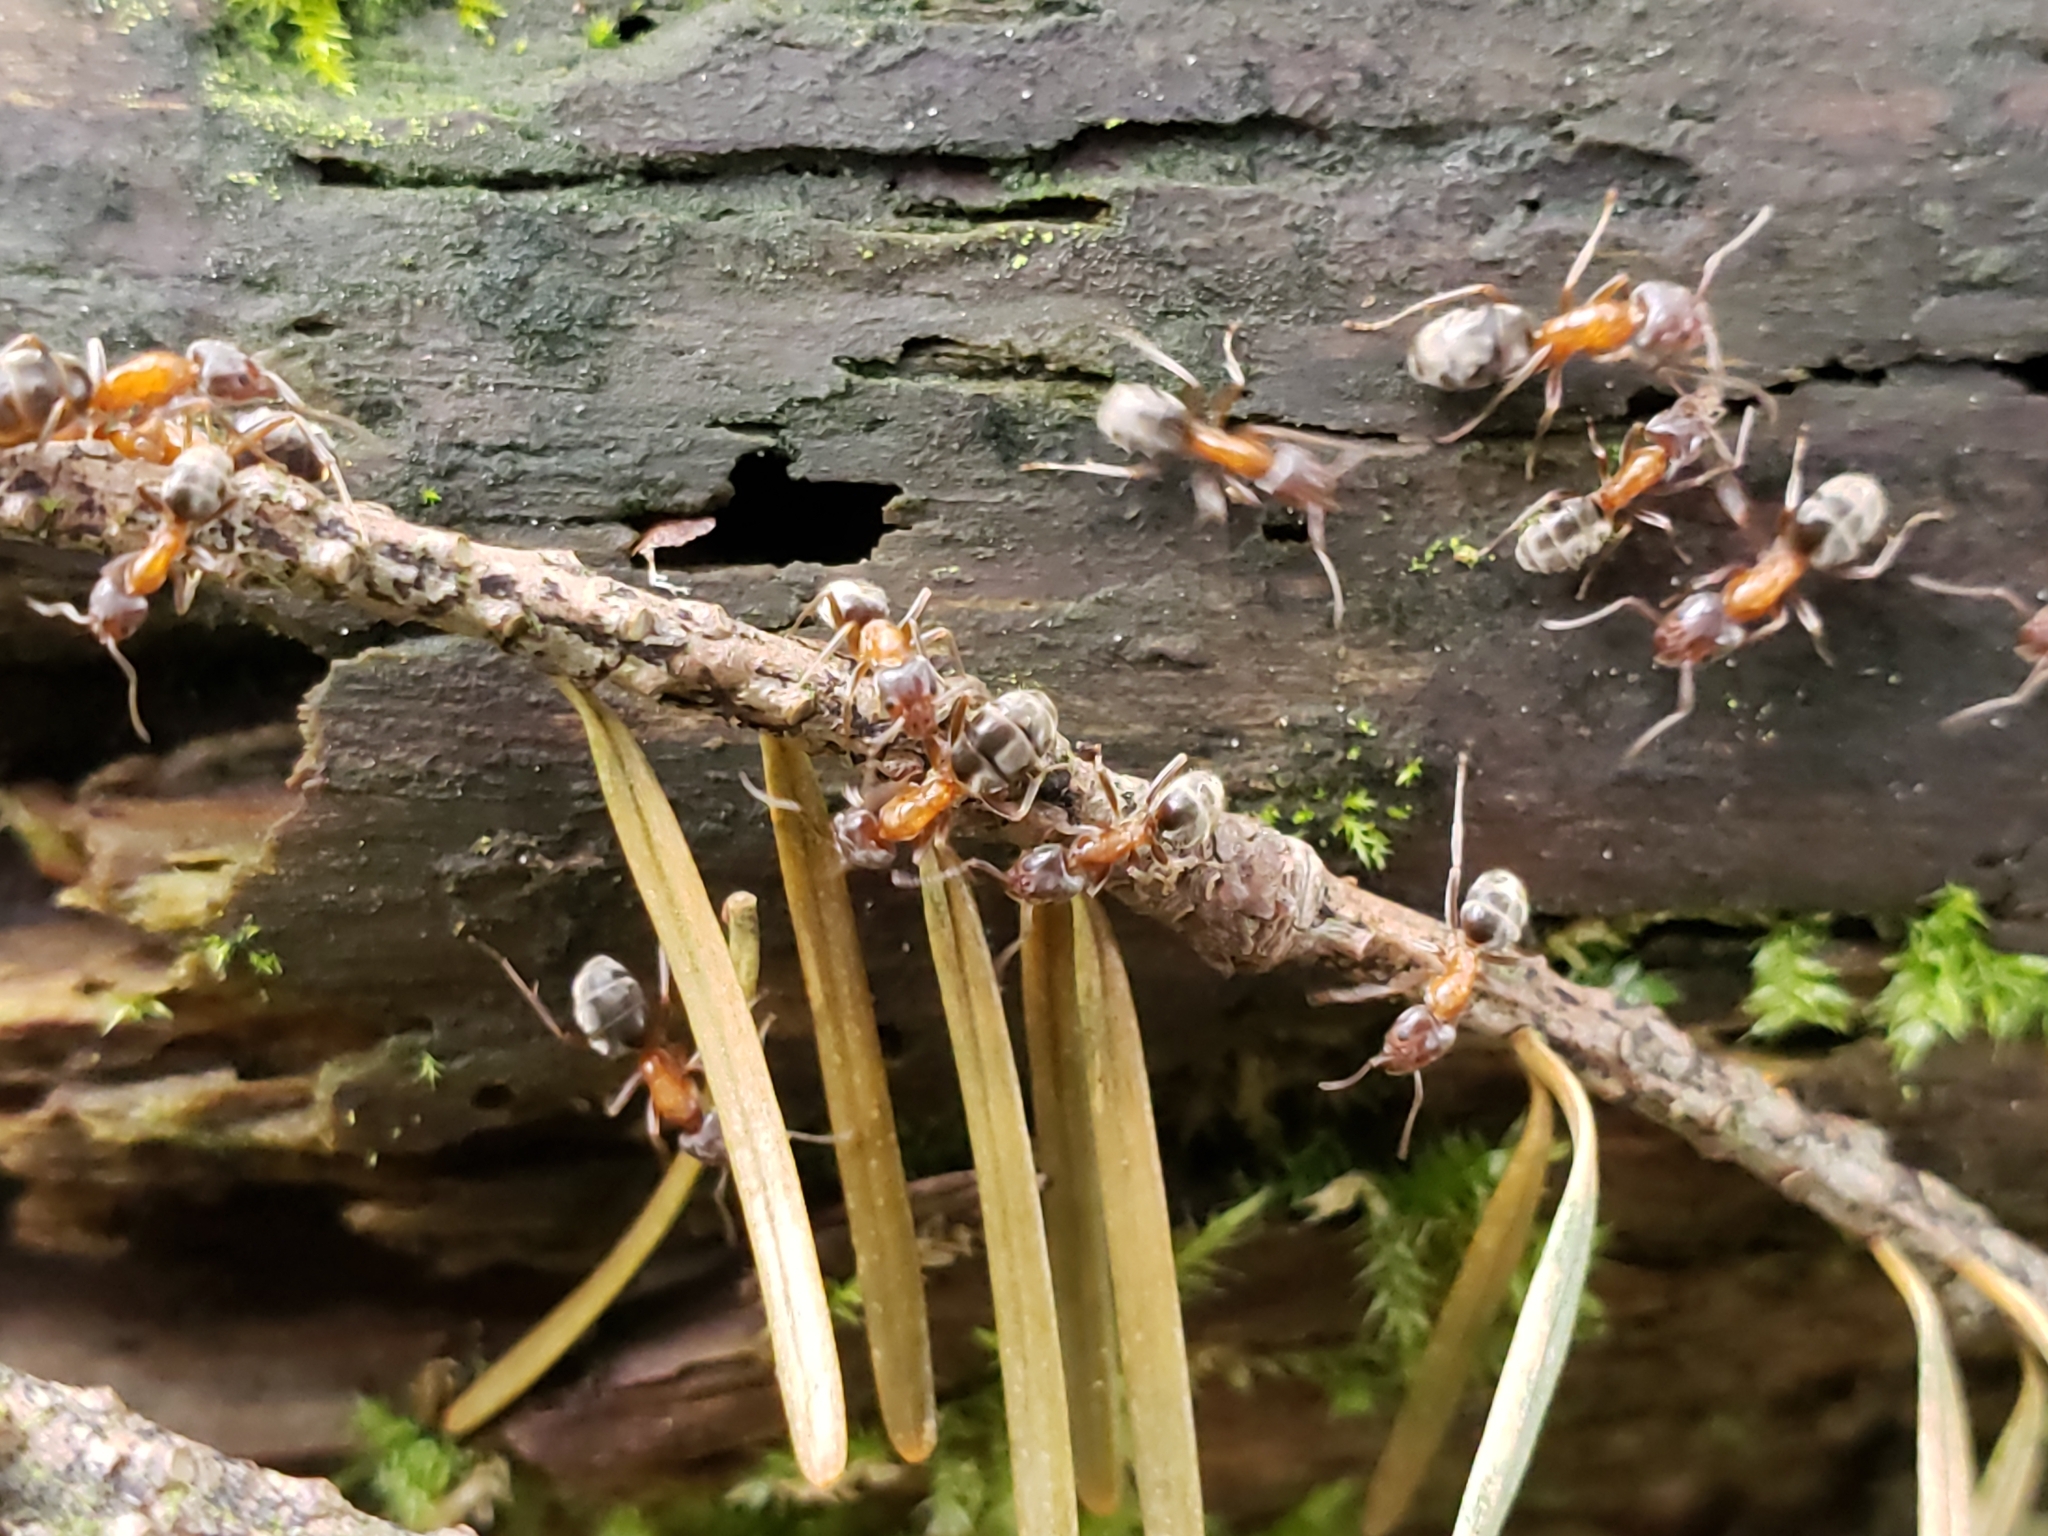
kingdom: Animalia
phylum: Arthropoda
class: Insecta
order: Hymenoptera
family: Formicidae
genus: Liometopum
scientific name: Liometopum occidentale
